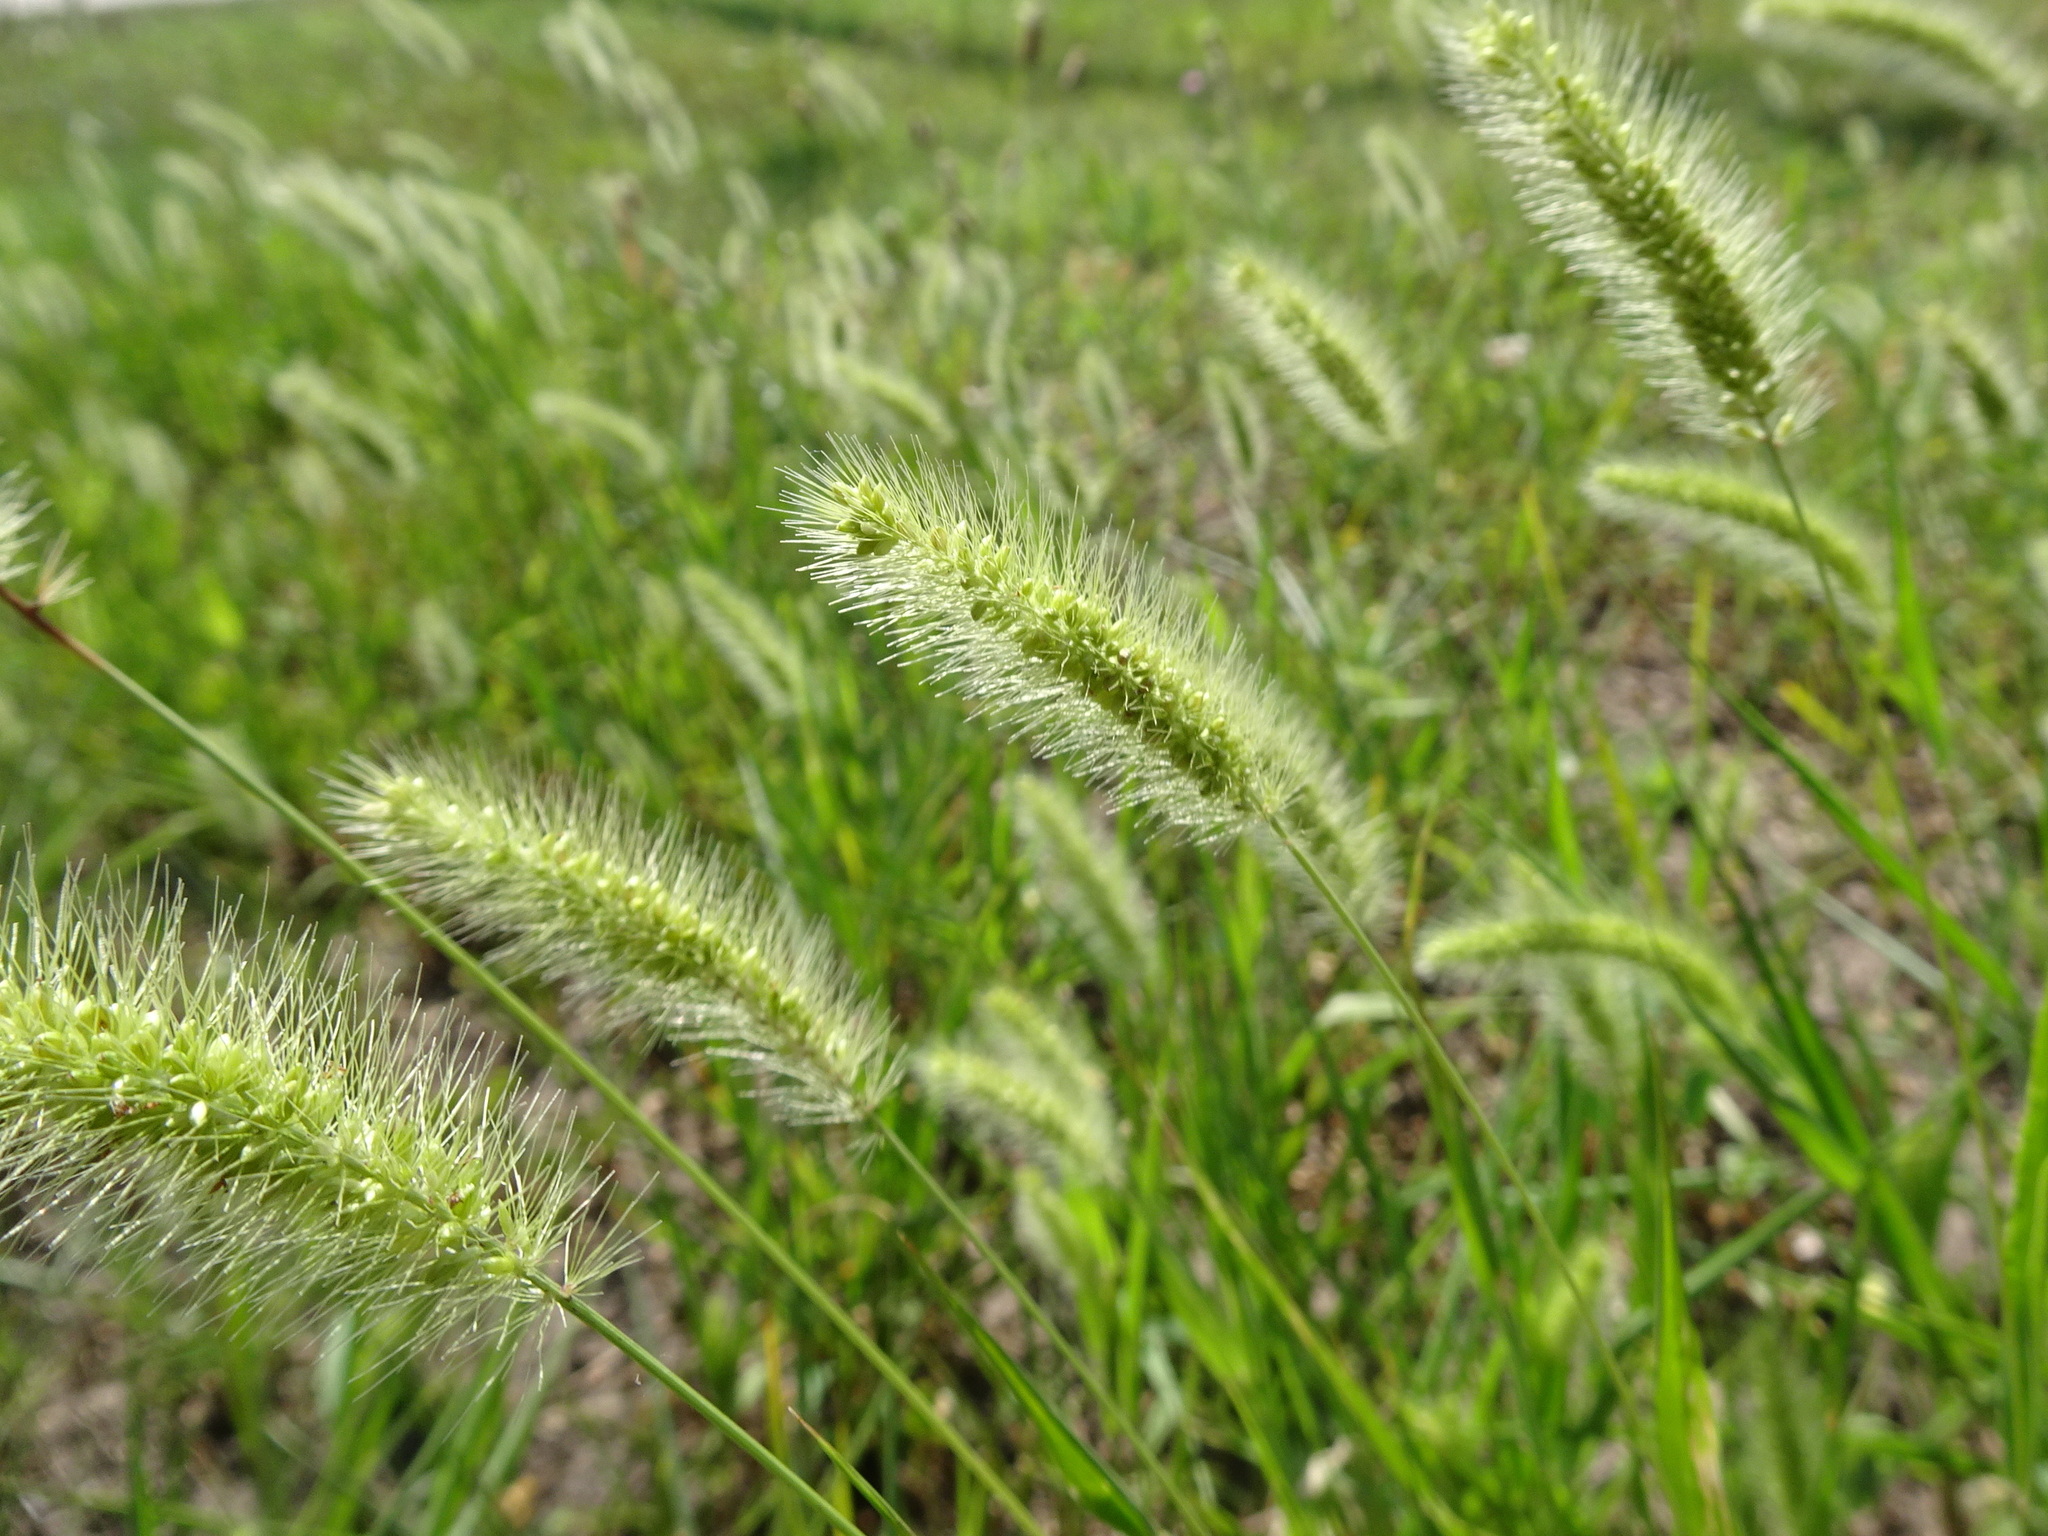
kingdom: Plantae
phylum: Tracheophyta
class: Liliopsida
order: Poales
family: Poaceae
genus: Setaria
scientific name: Setaria viridis
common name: Green bristlegrass
